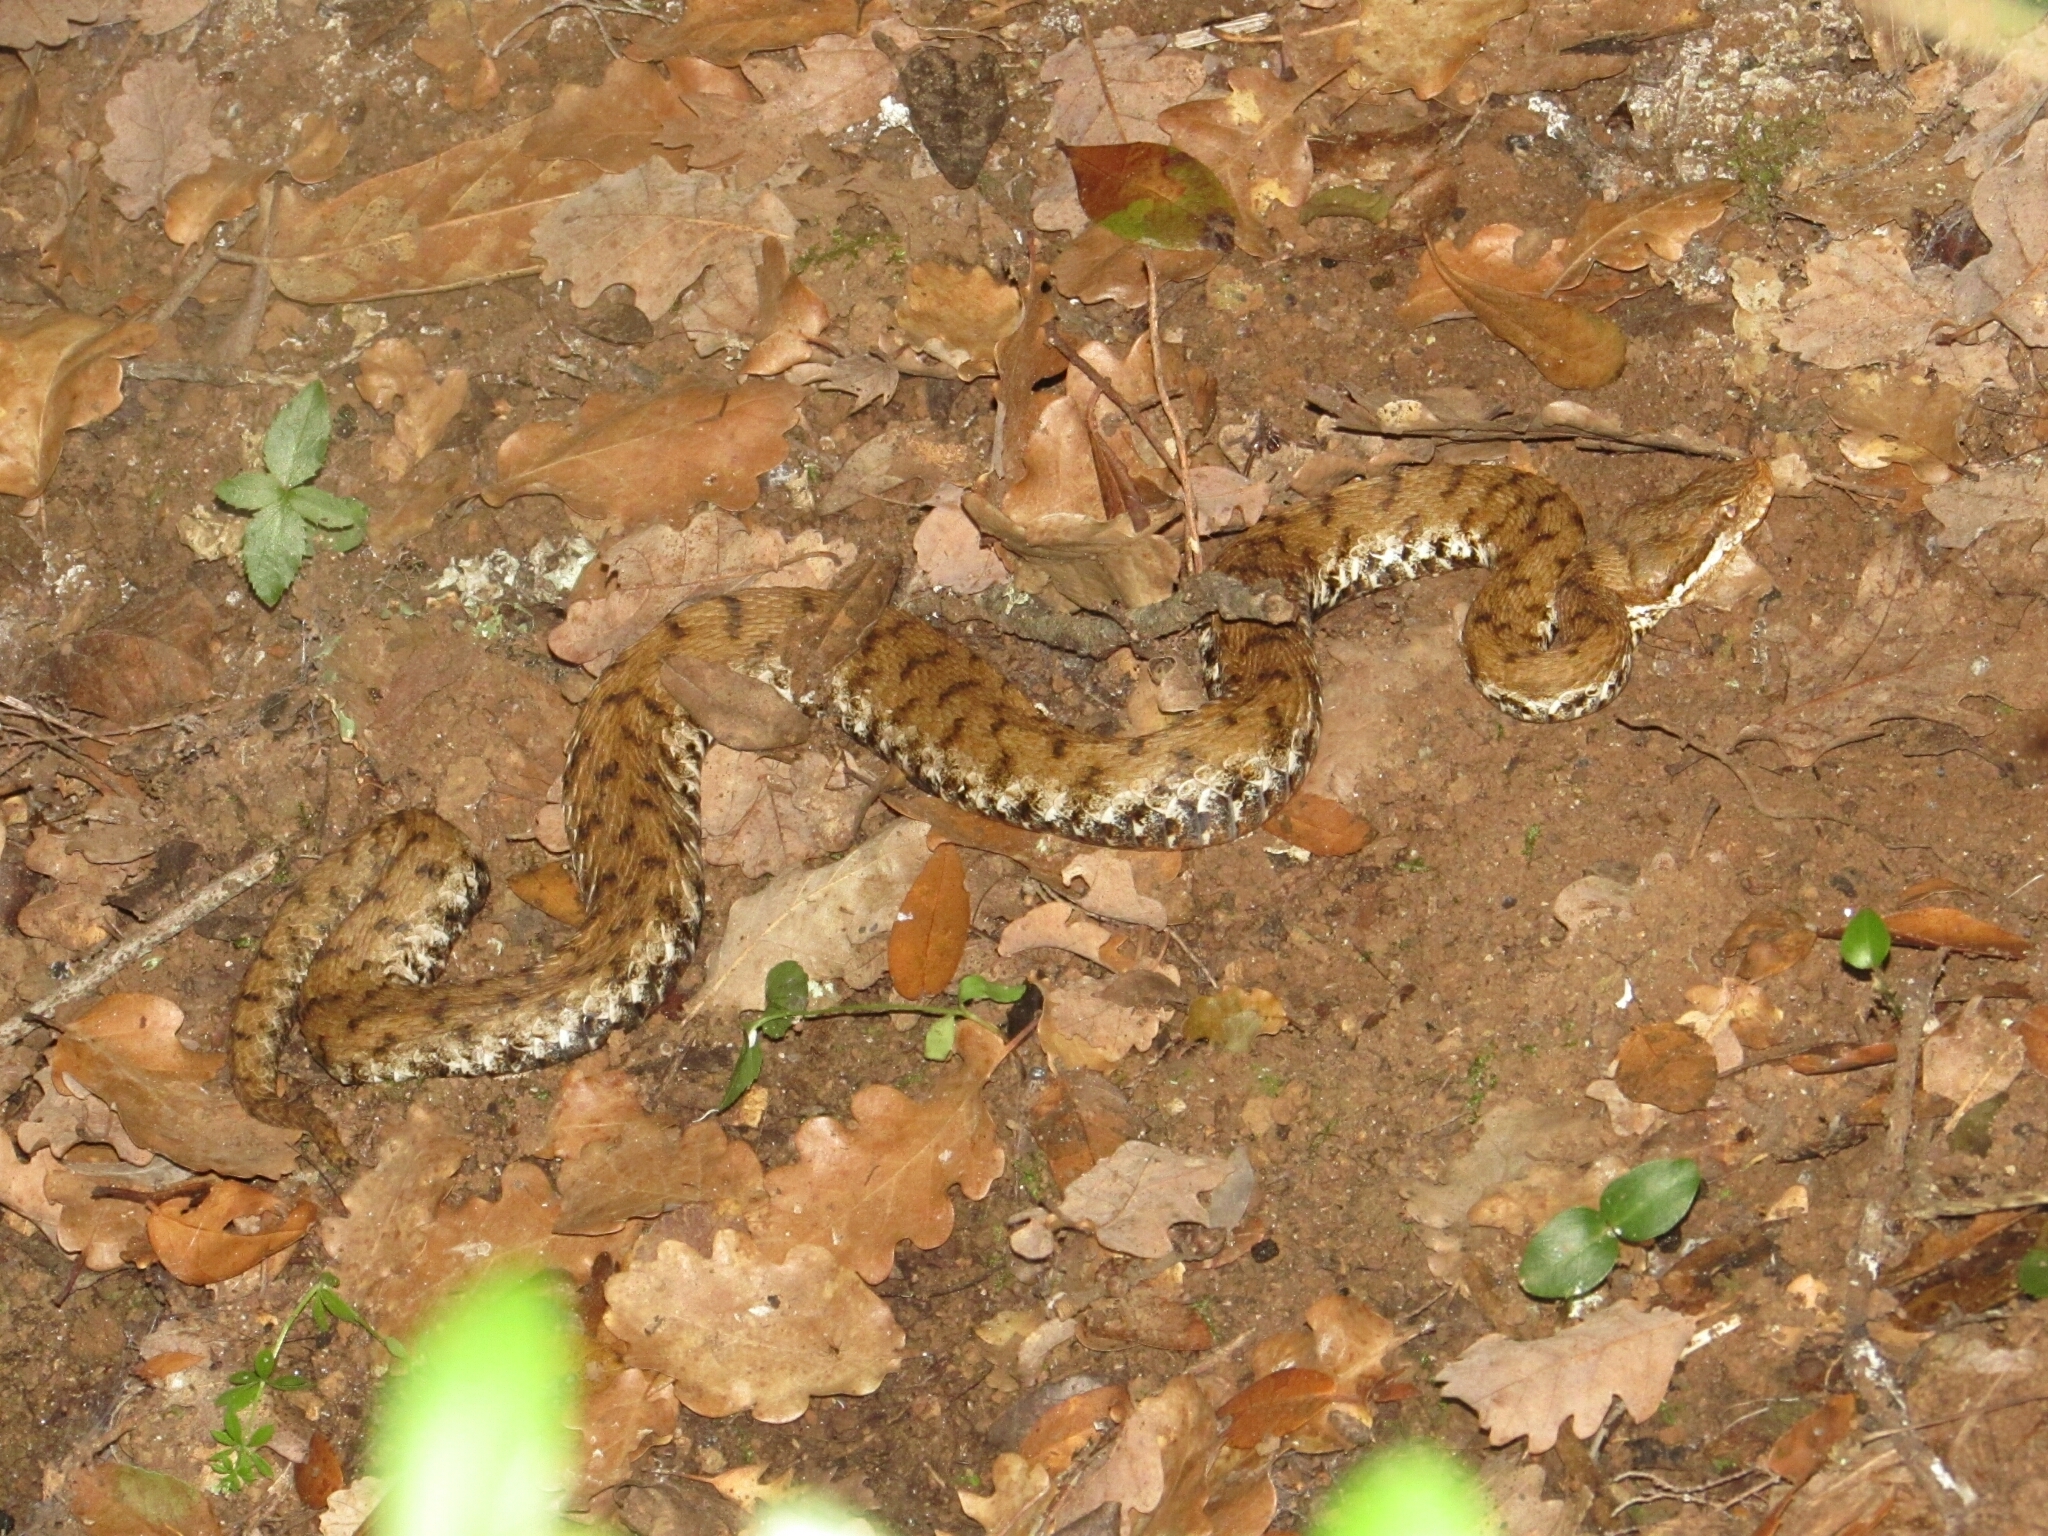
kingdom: Animalia
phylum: Chordata
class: Squamata
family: Viperidae
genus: Vipera
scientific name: Vipera aspis
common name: Asp viper
